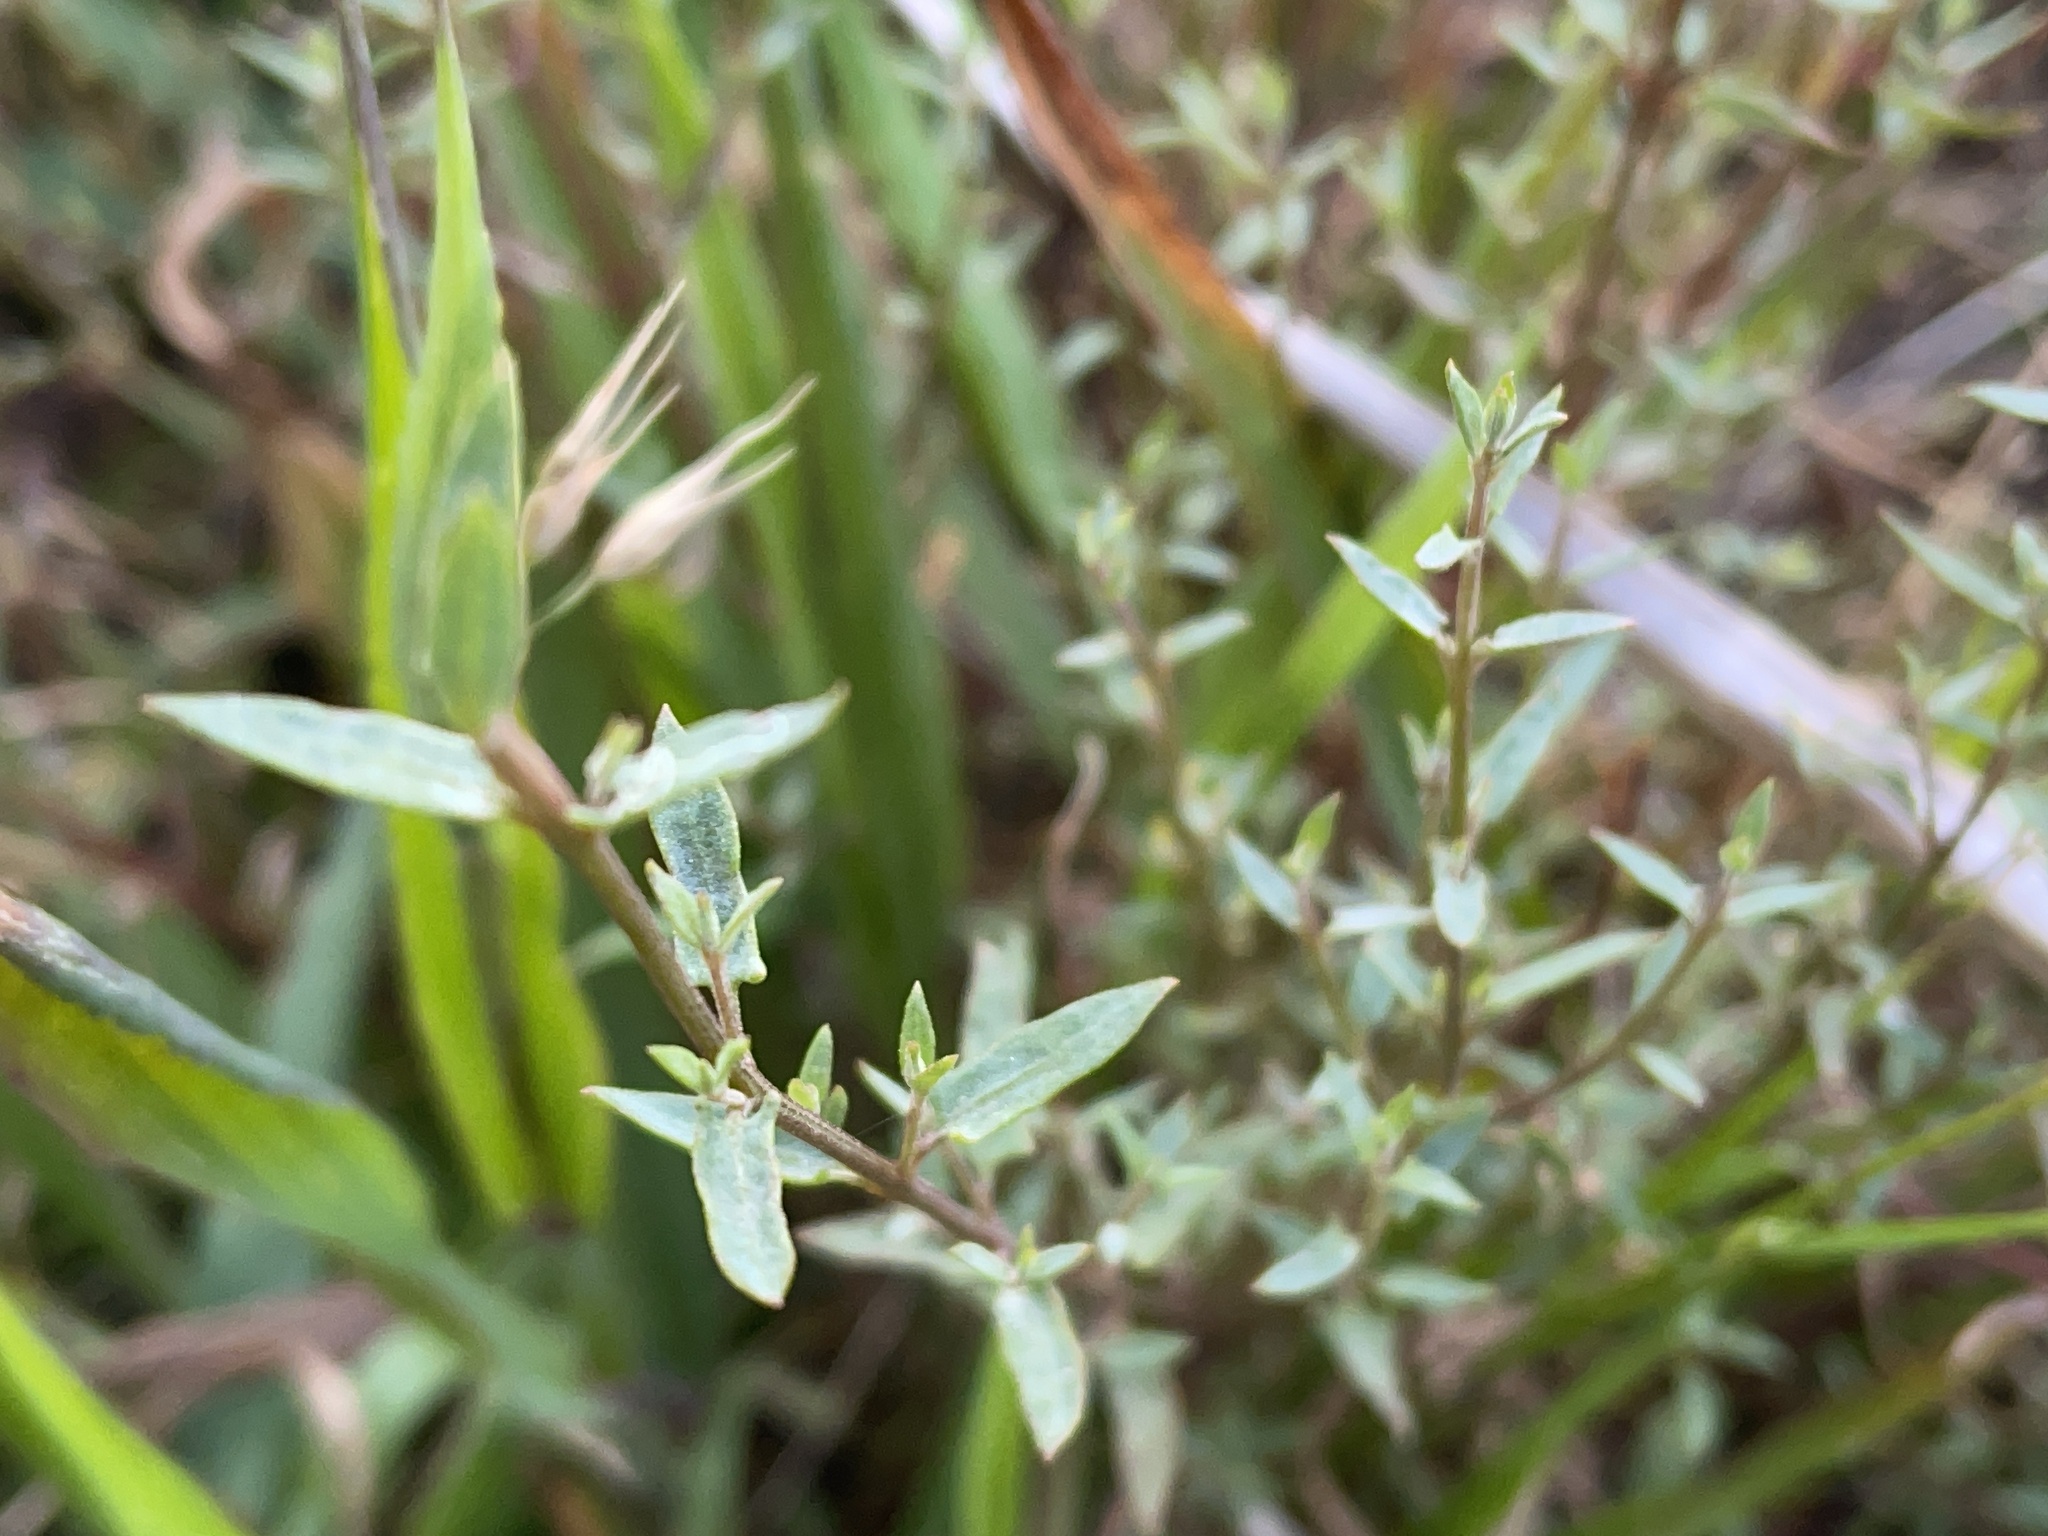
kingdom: Plantae
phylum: Tracheophyta
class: Magnoliopsida
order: Caryophyllales
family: Amaranthaceae
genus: Chenopodium
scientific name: Chenopodium nutans
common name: Climbing-saltbush
